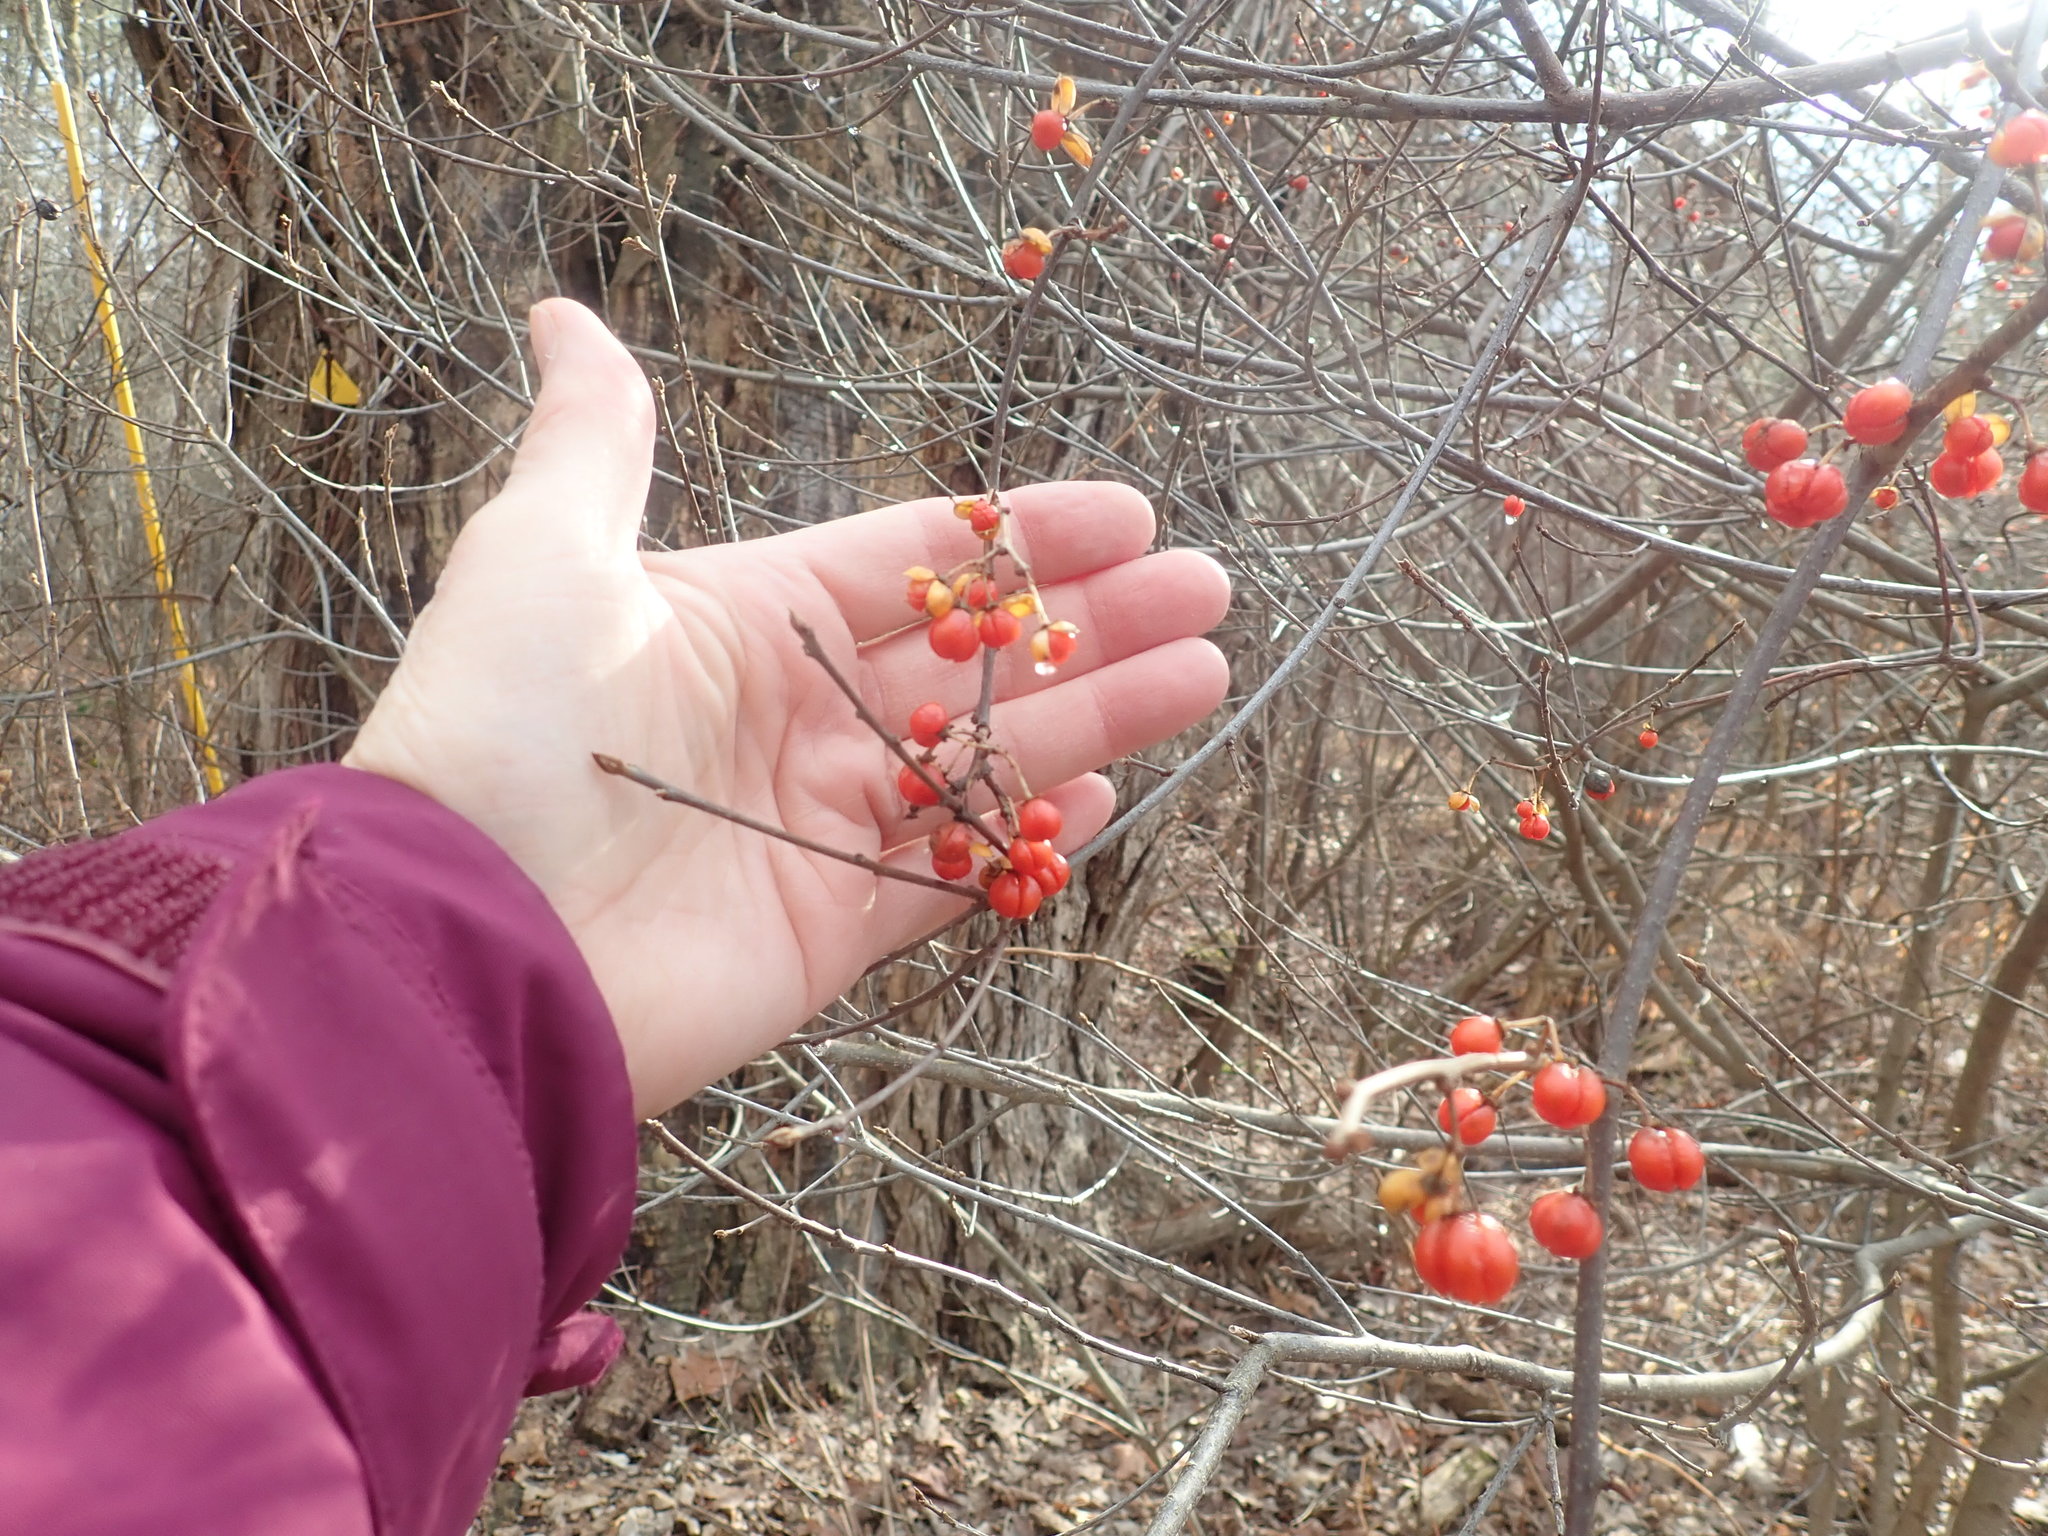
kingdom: Plantae
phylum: Tracheophyta
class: Magnoliopsida
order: Celastrales
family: Celastraceae
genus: Celastrus
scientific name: Celastrus orbiculatus
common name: Oriental bittersweet
